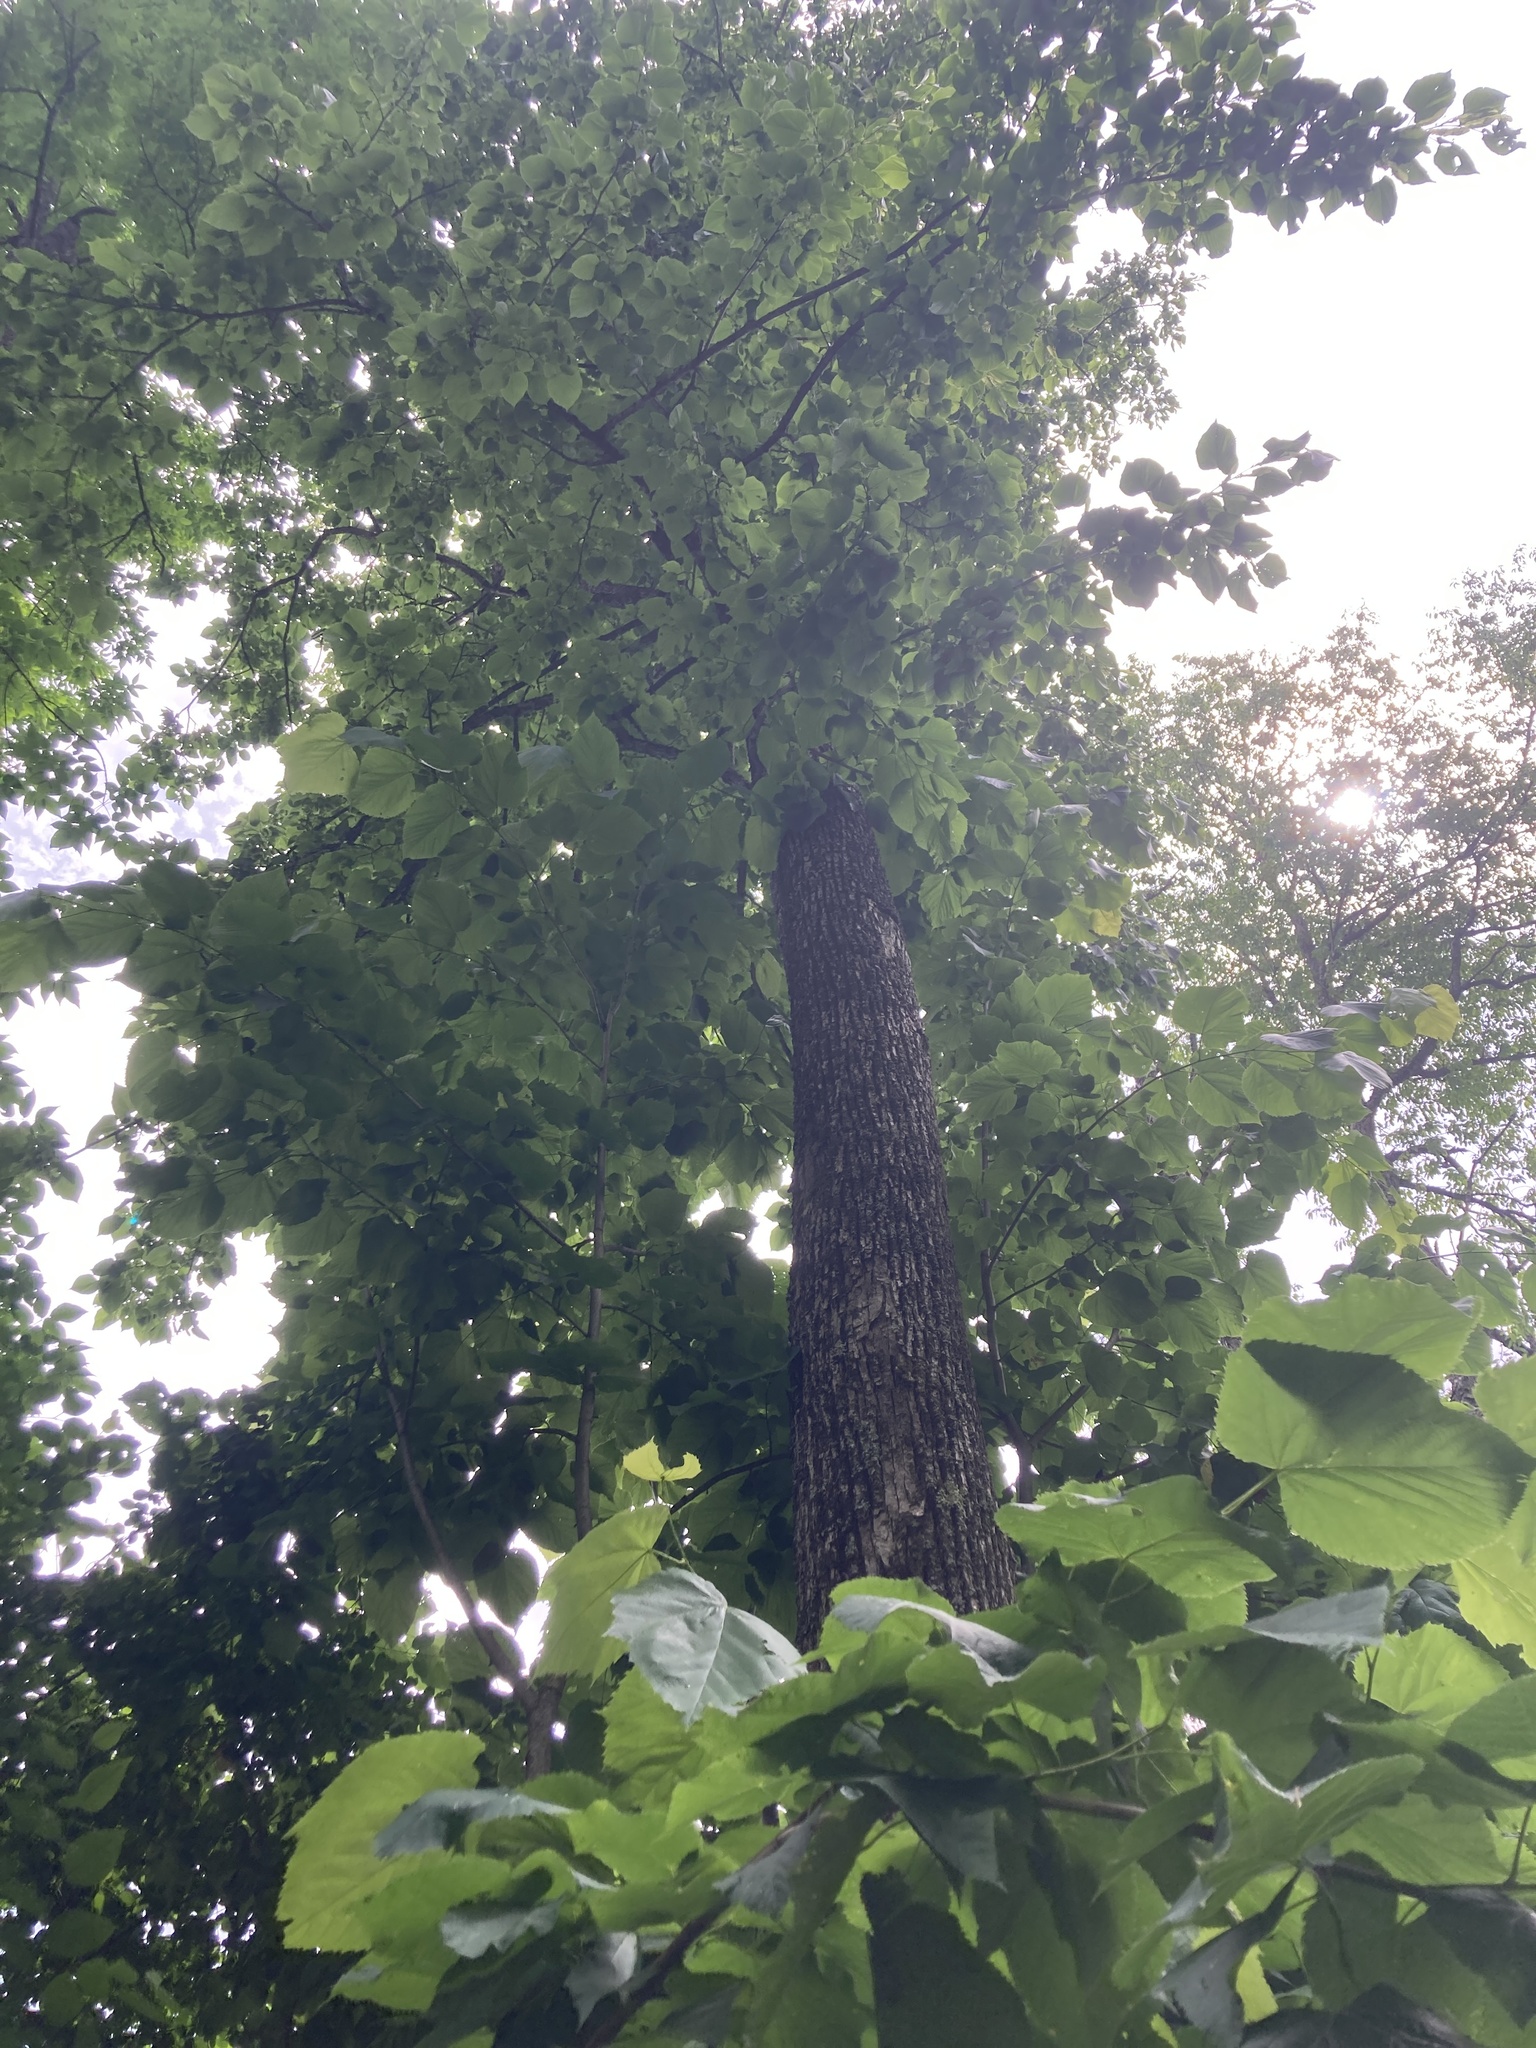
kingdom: Plantae
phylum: Tracheophyta
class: Magnoliopsida
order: Malvales
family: Malvaceae
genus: Tilia
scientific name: Tilia americana
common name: Basswood
